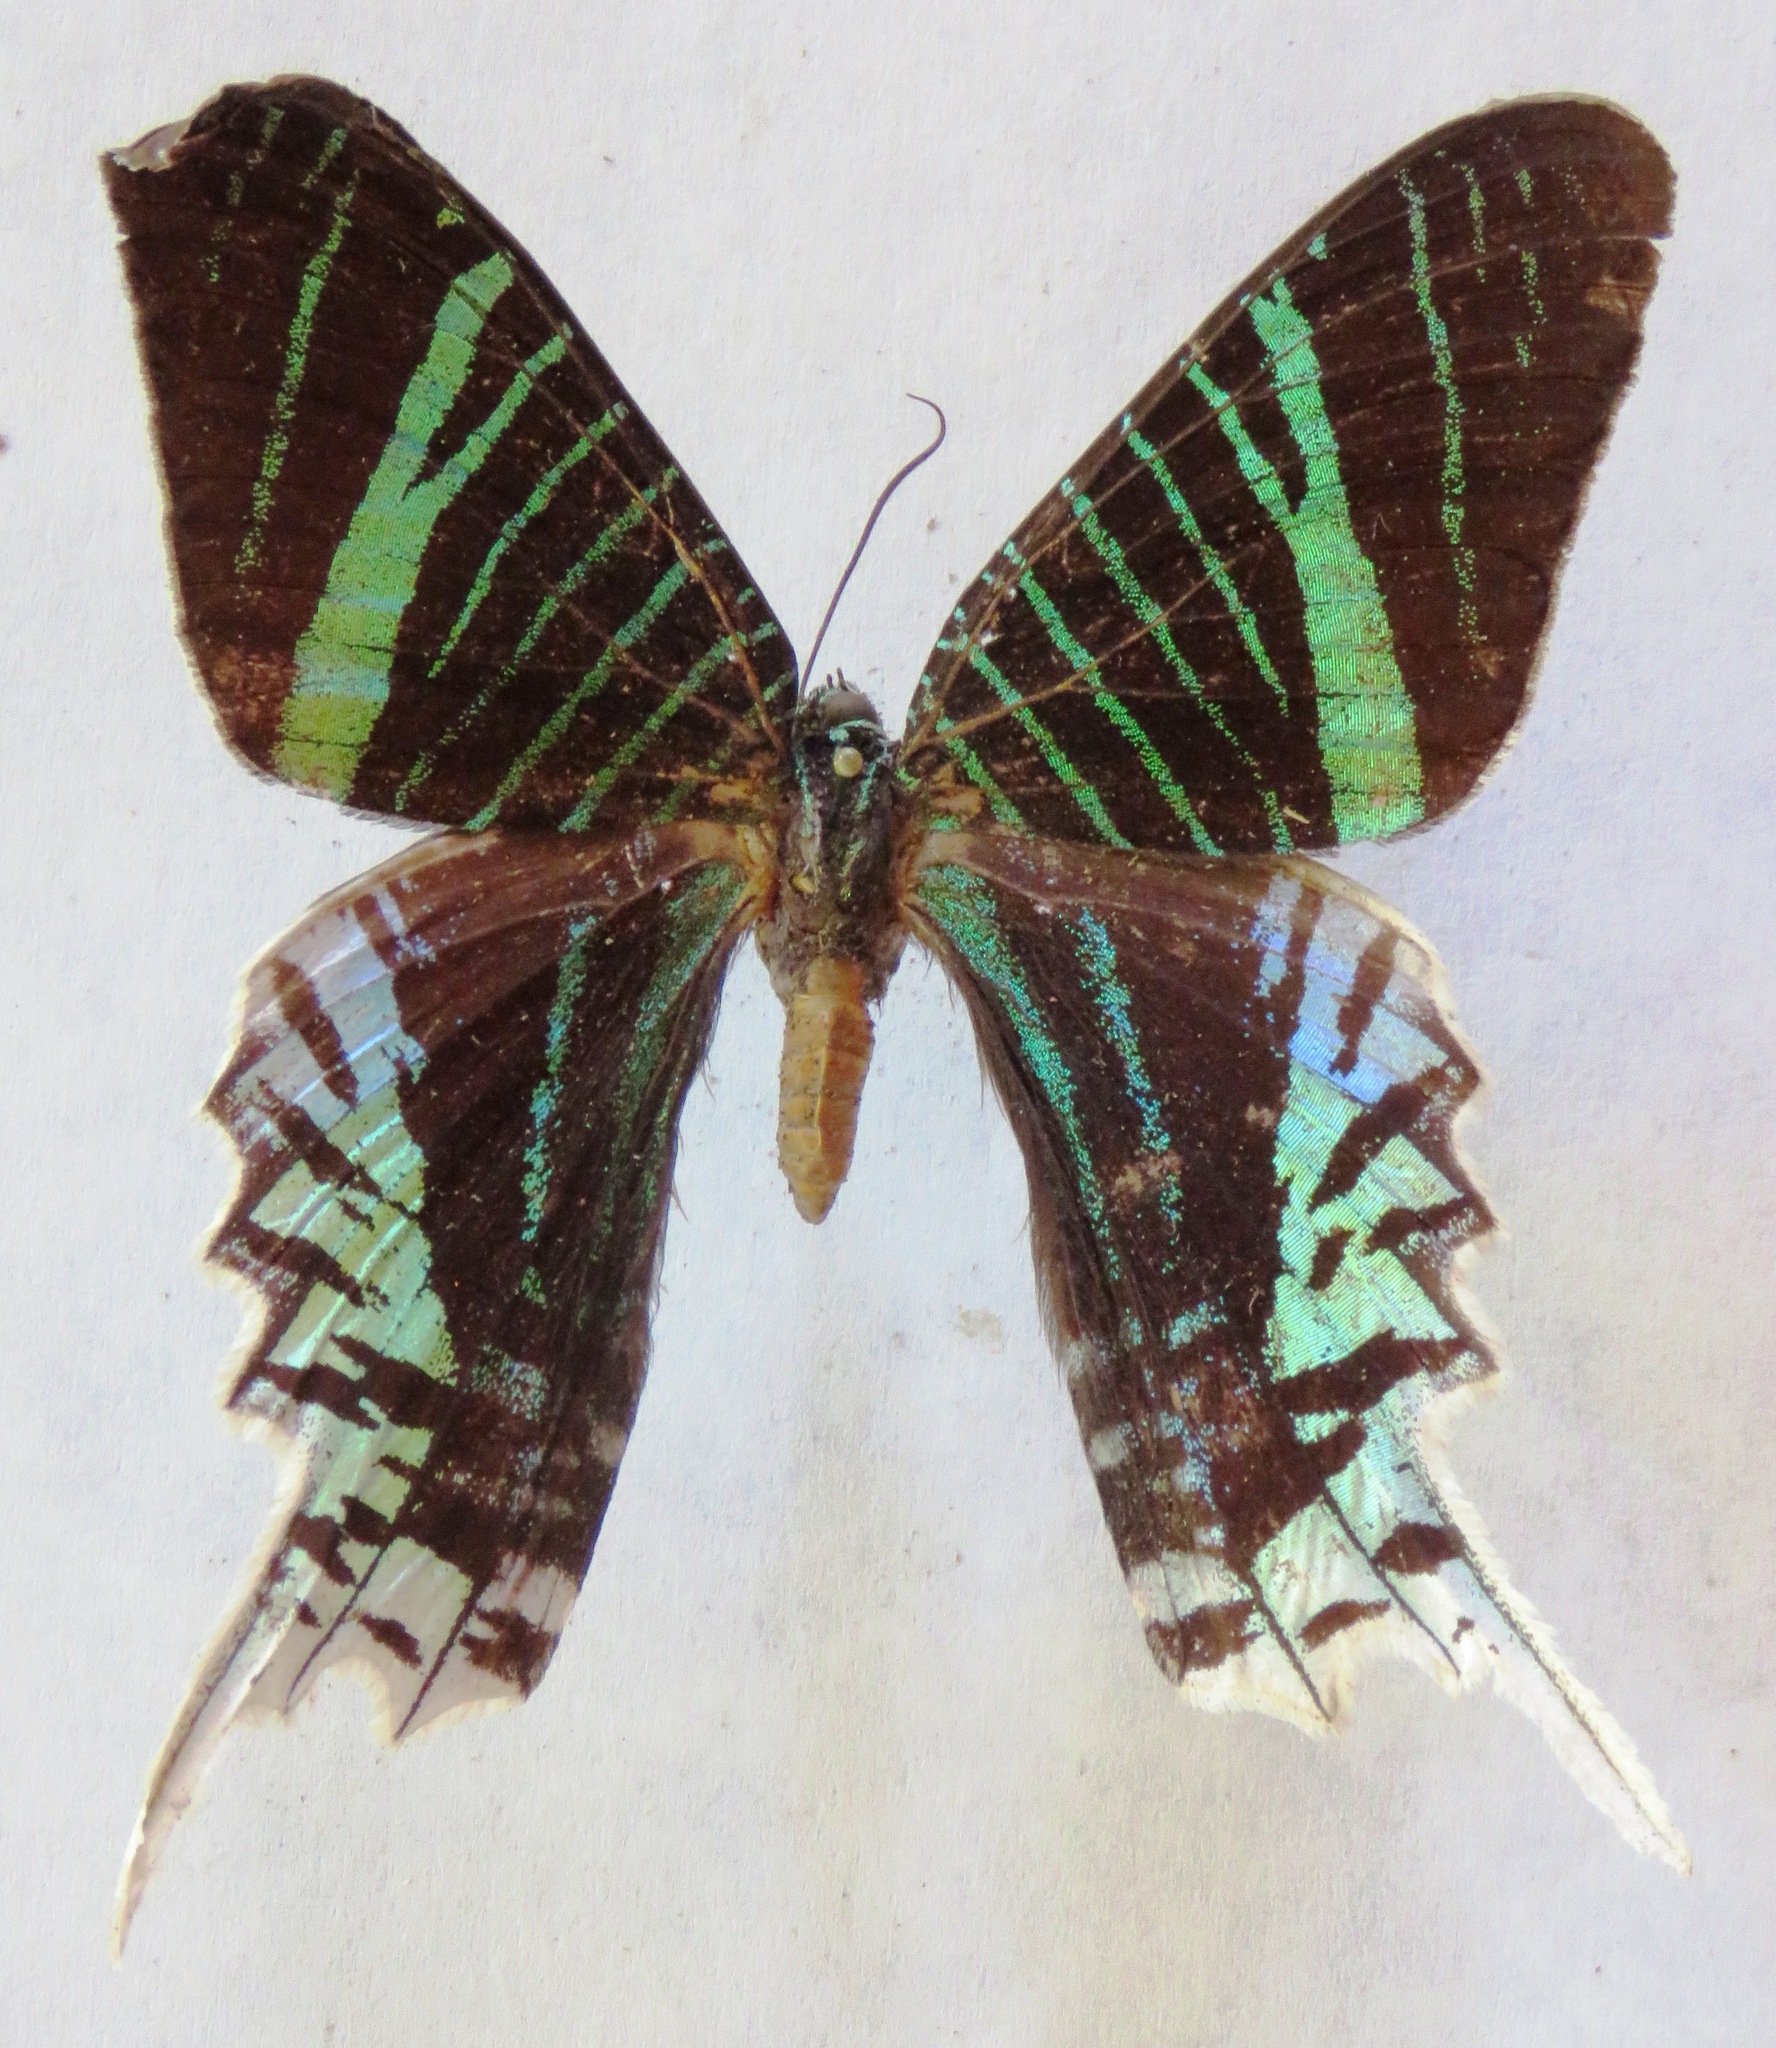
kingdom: Animalia
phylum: Arthropoda
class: Insecta
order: Lepidoptera
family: Uraniidae
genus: Urania
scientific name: Urania leilus
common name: Peacock moth
